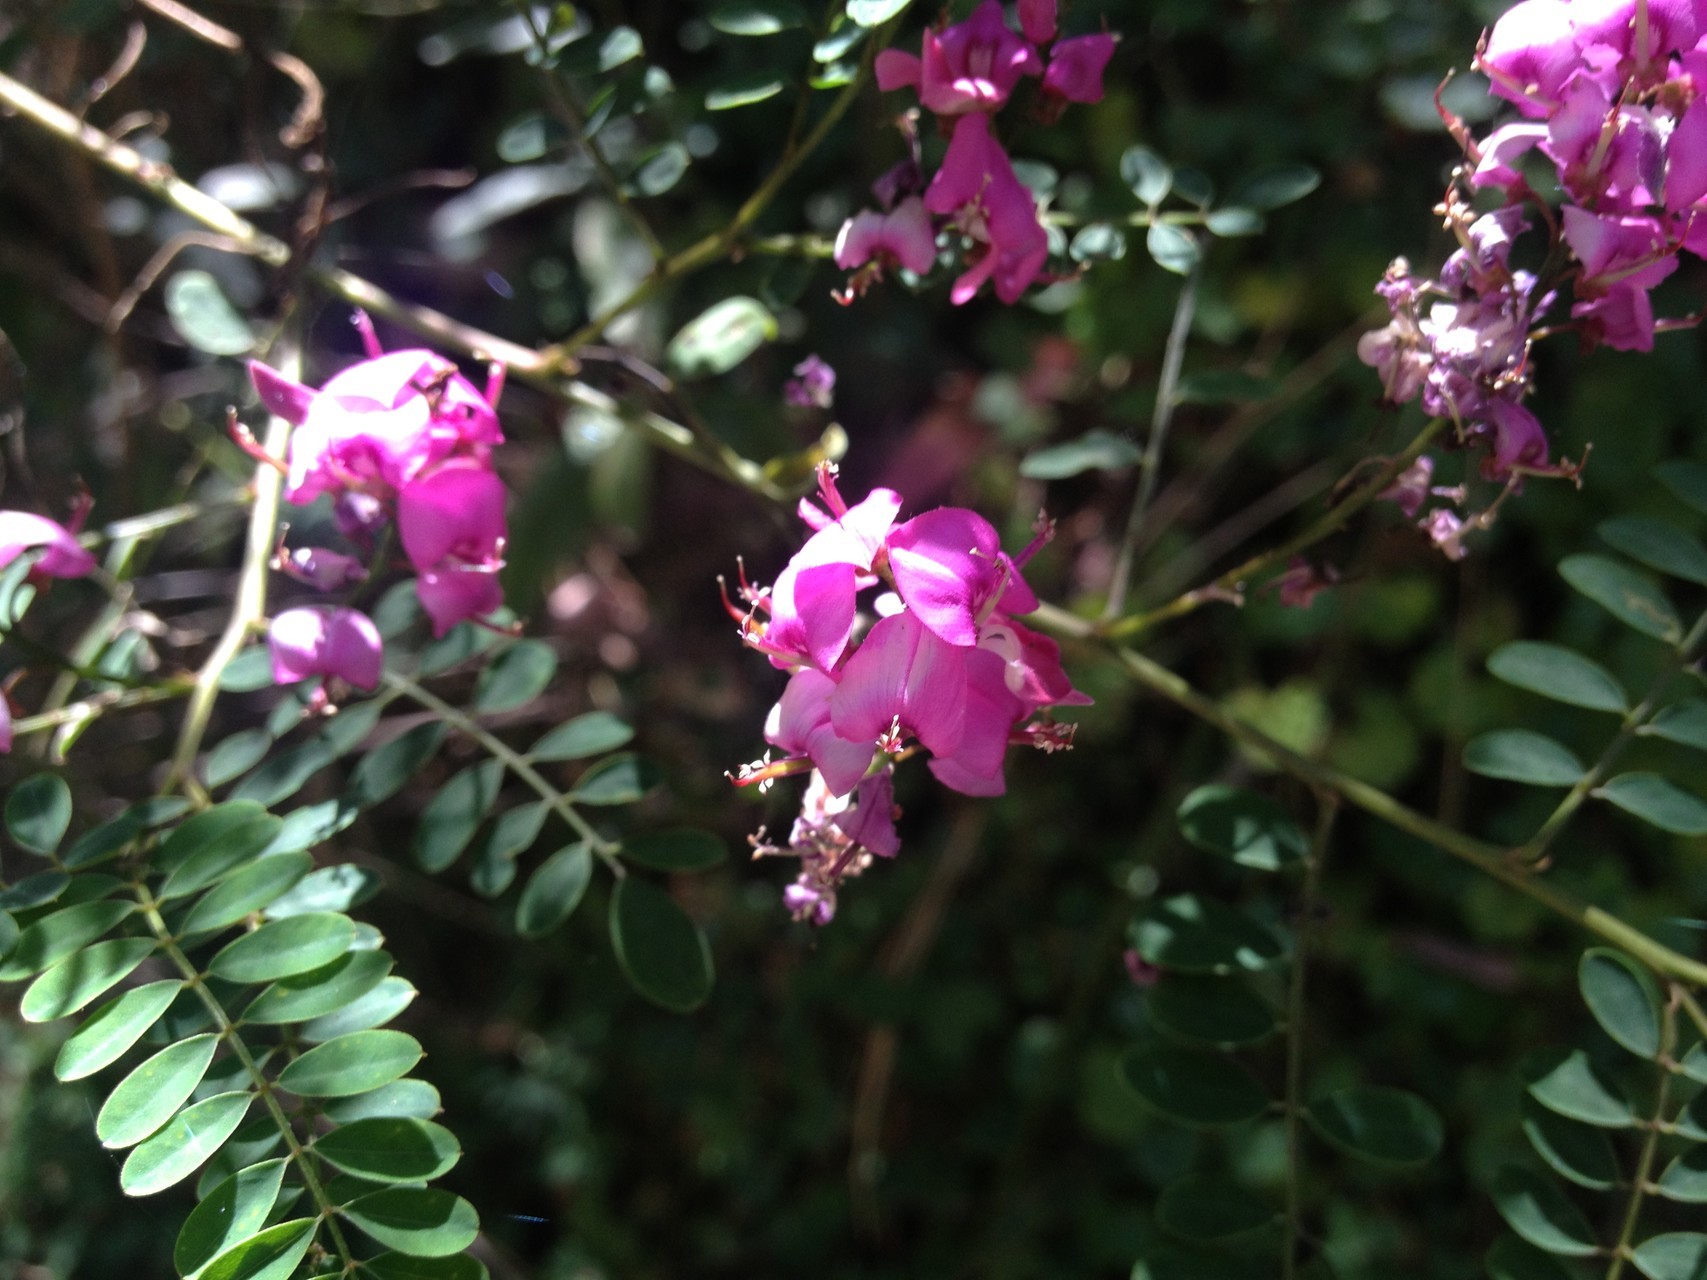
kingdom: Plantae
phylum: Tracheophyta
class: Magnoliopsida
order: Fabales
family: Fabaceae
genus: Indigofera
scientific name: Indigofera australis
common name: Australian indigo
